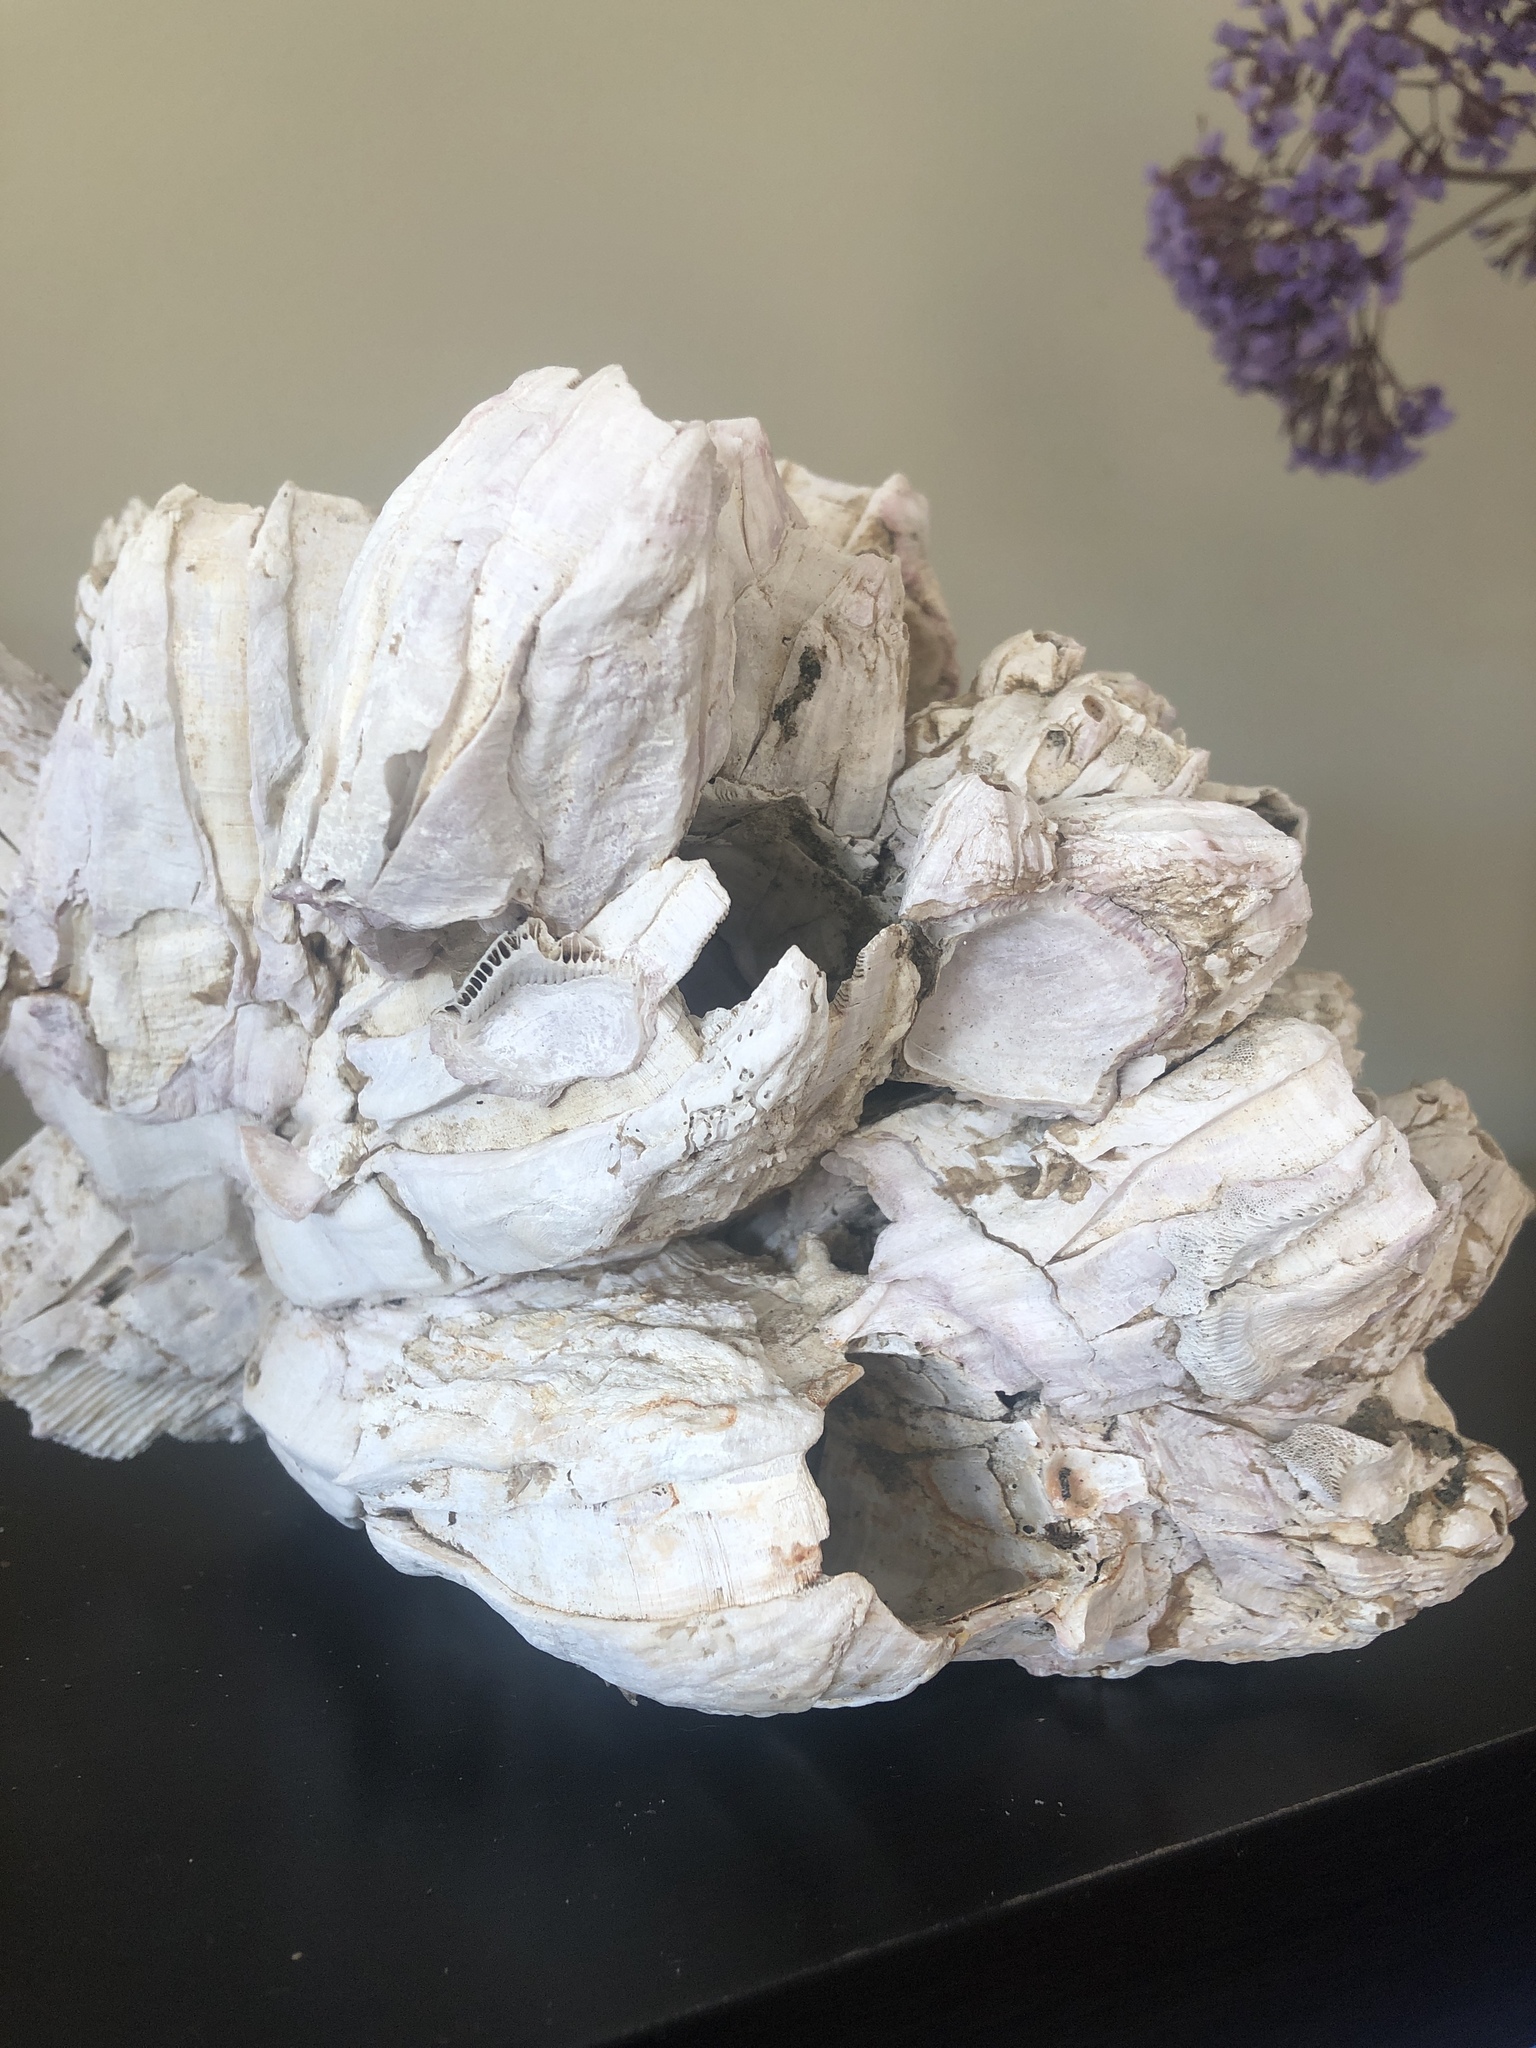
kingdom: Animalia
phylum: Arthropoda
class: Maxillopoda
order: Sessilia
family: Balanidae
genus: Austromegabalanus
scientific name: Austromegabalanus psittacus
